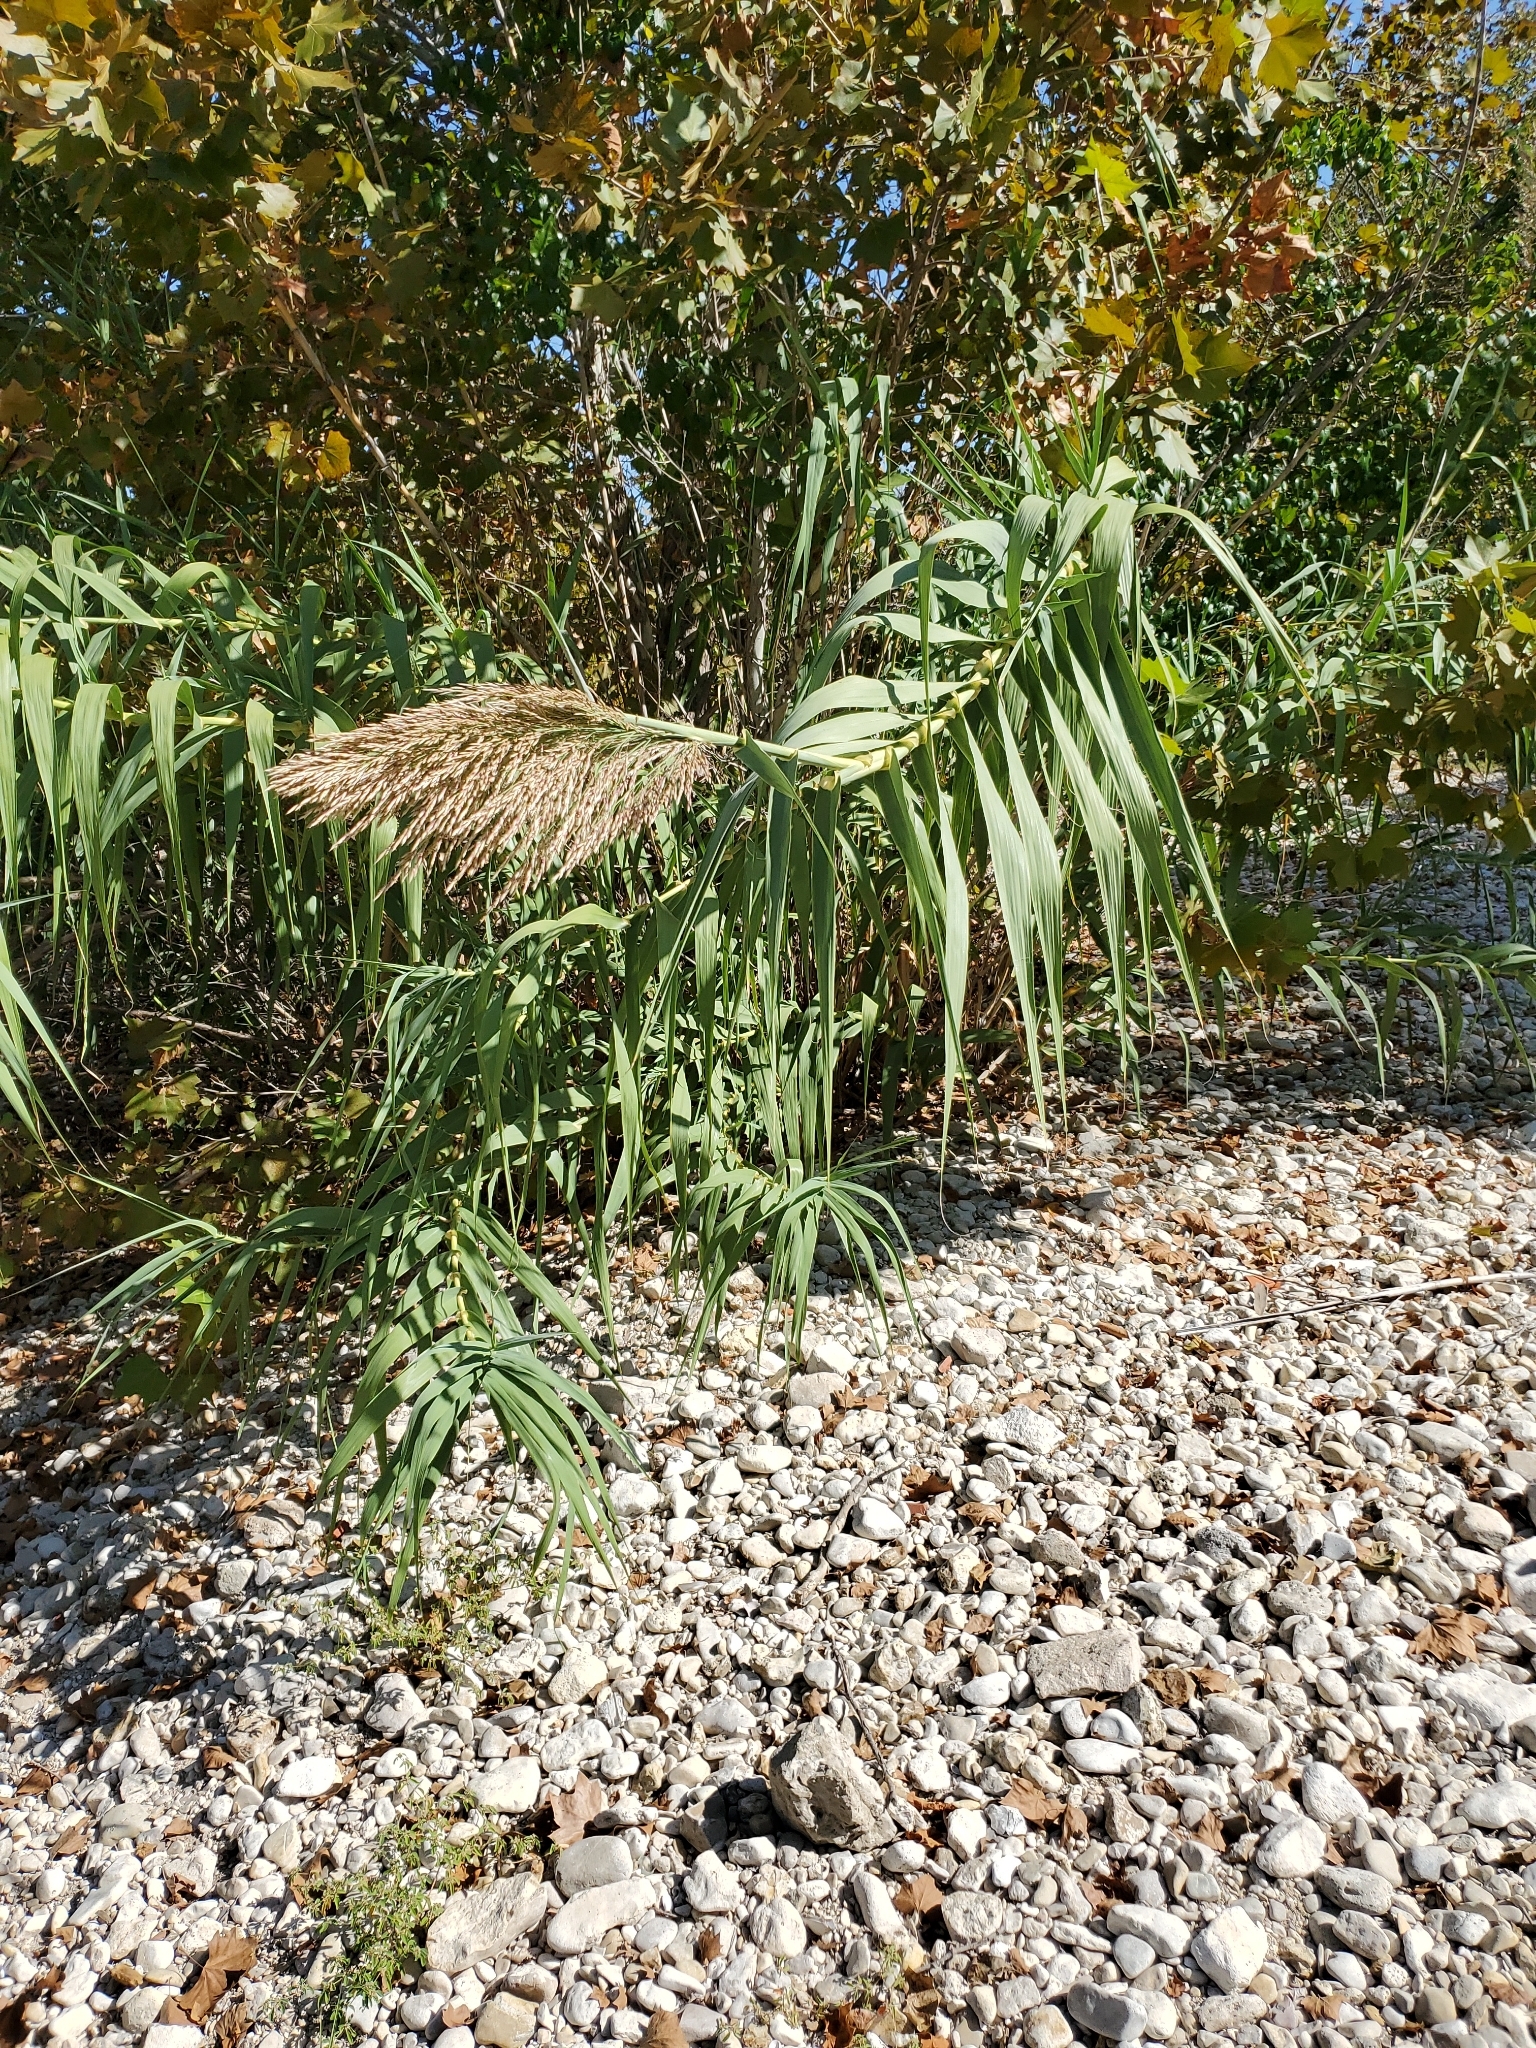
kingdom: Plantae
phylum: Tracheophyta
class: Liliopsida
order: Poales
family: Poaceae
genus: Arundo
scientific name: Arundo donax
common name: Giant reed
